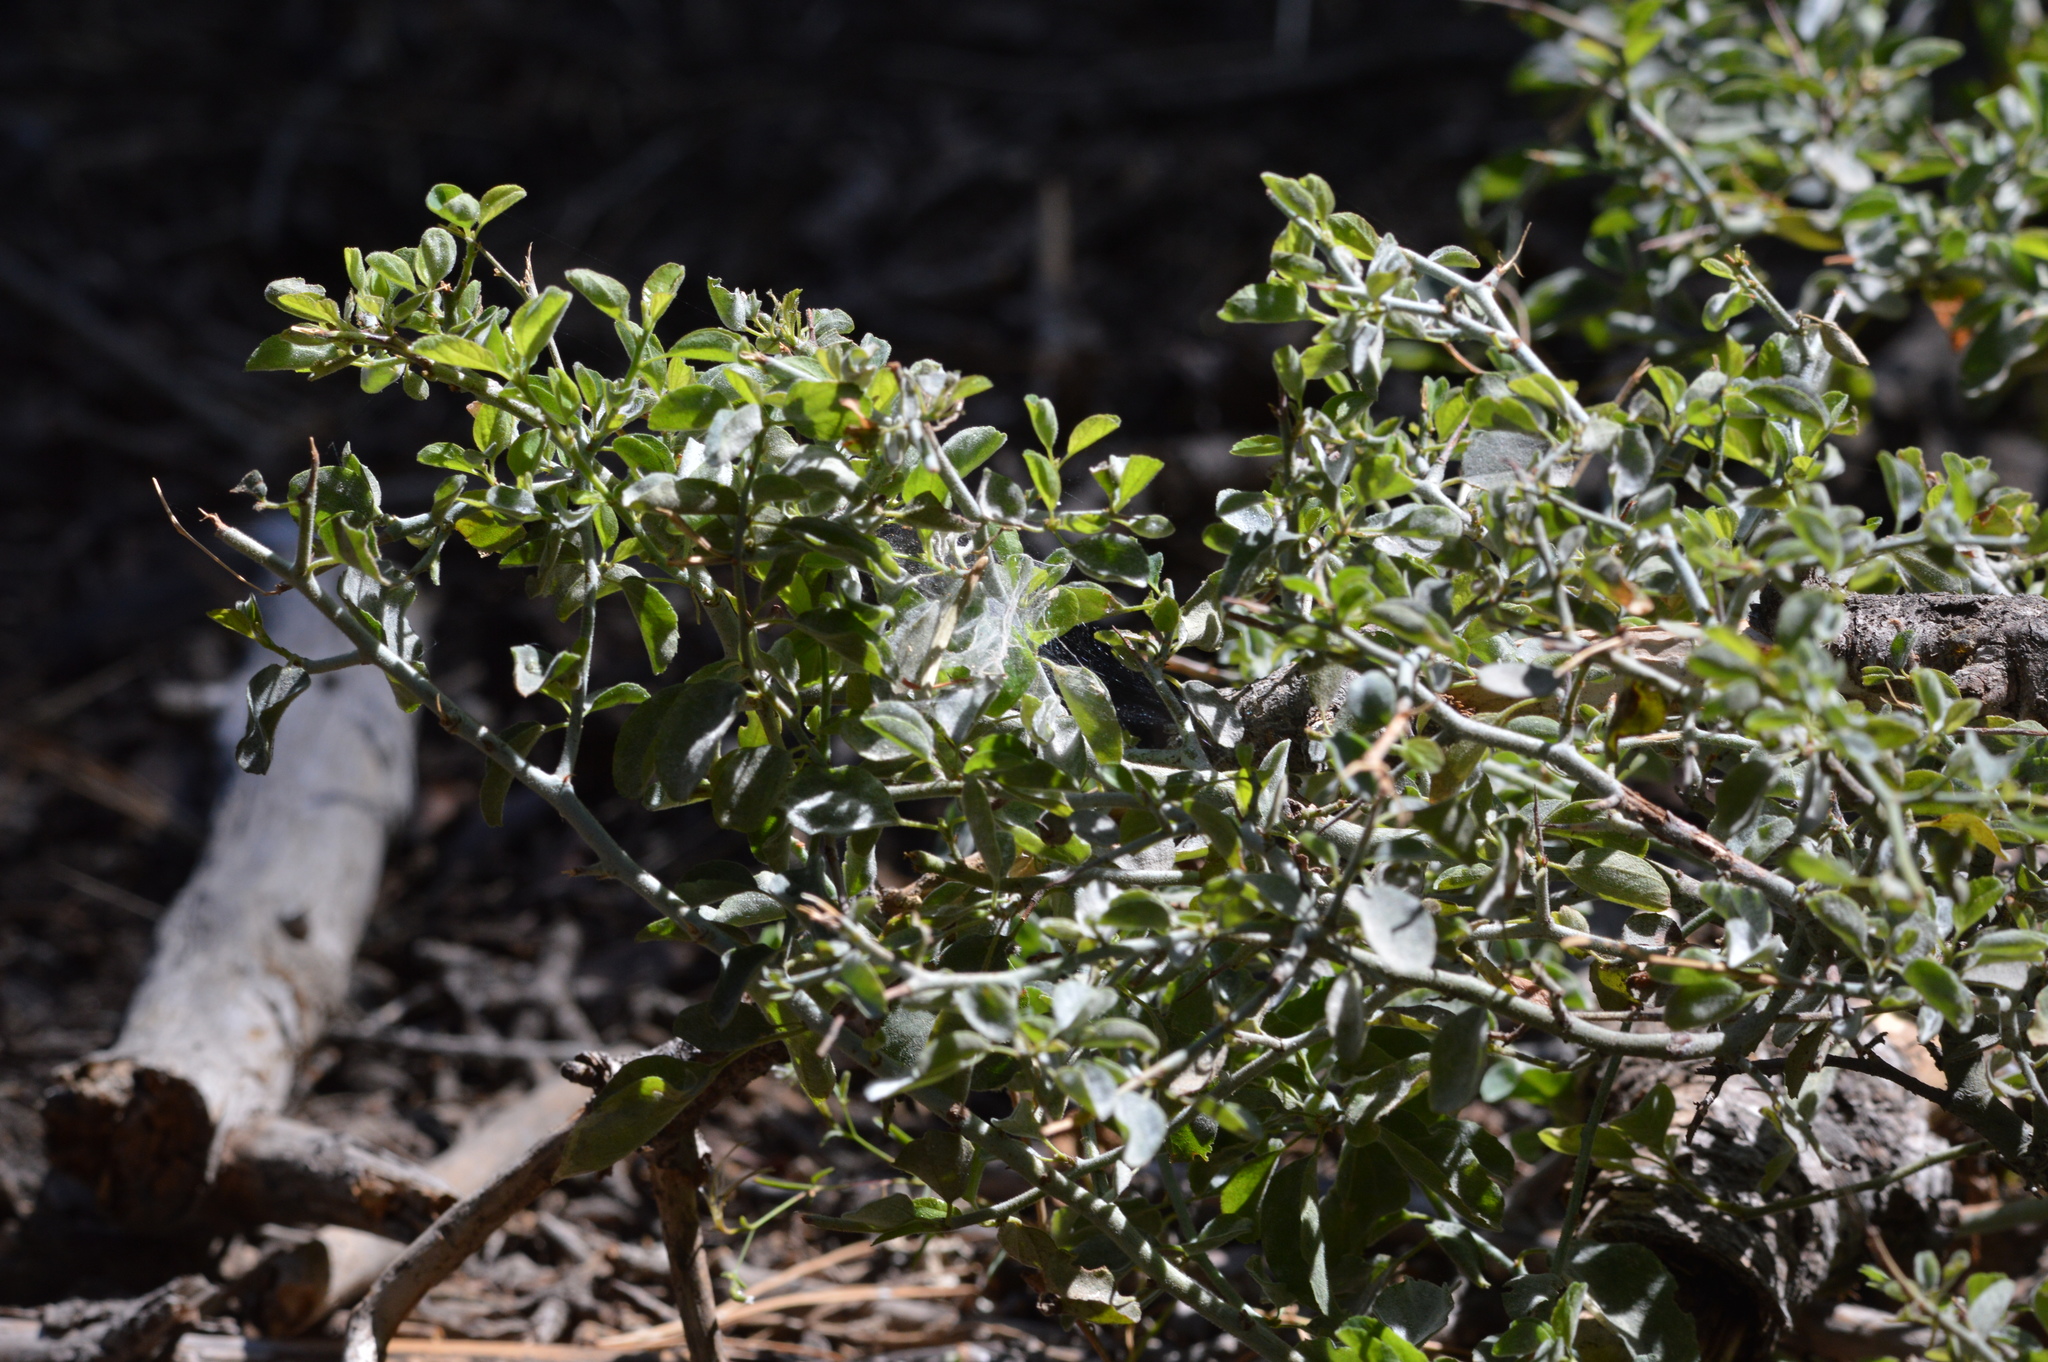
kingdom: Plantae
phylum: Tracheophyta
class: Magnoliopsida
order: Rosales
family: Rhamnaceae
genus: Ceanothus
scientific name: Ceanothus cordulatus
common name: Mountain whitethorn
